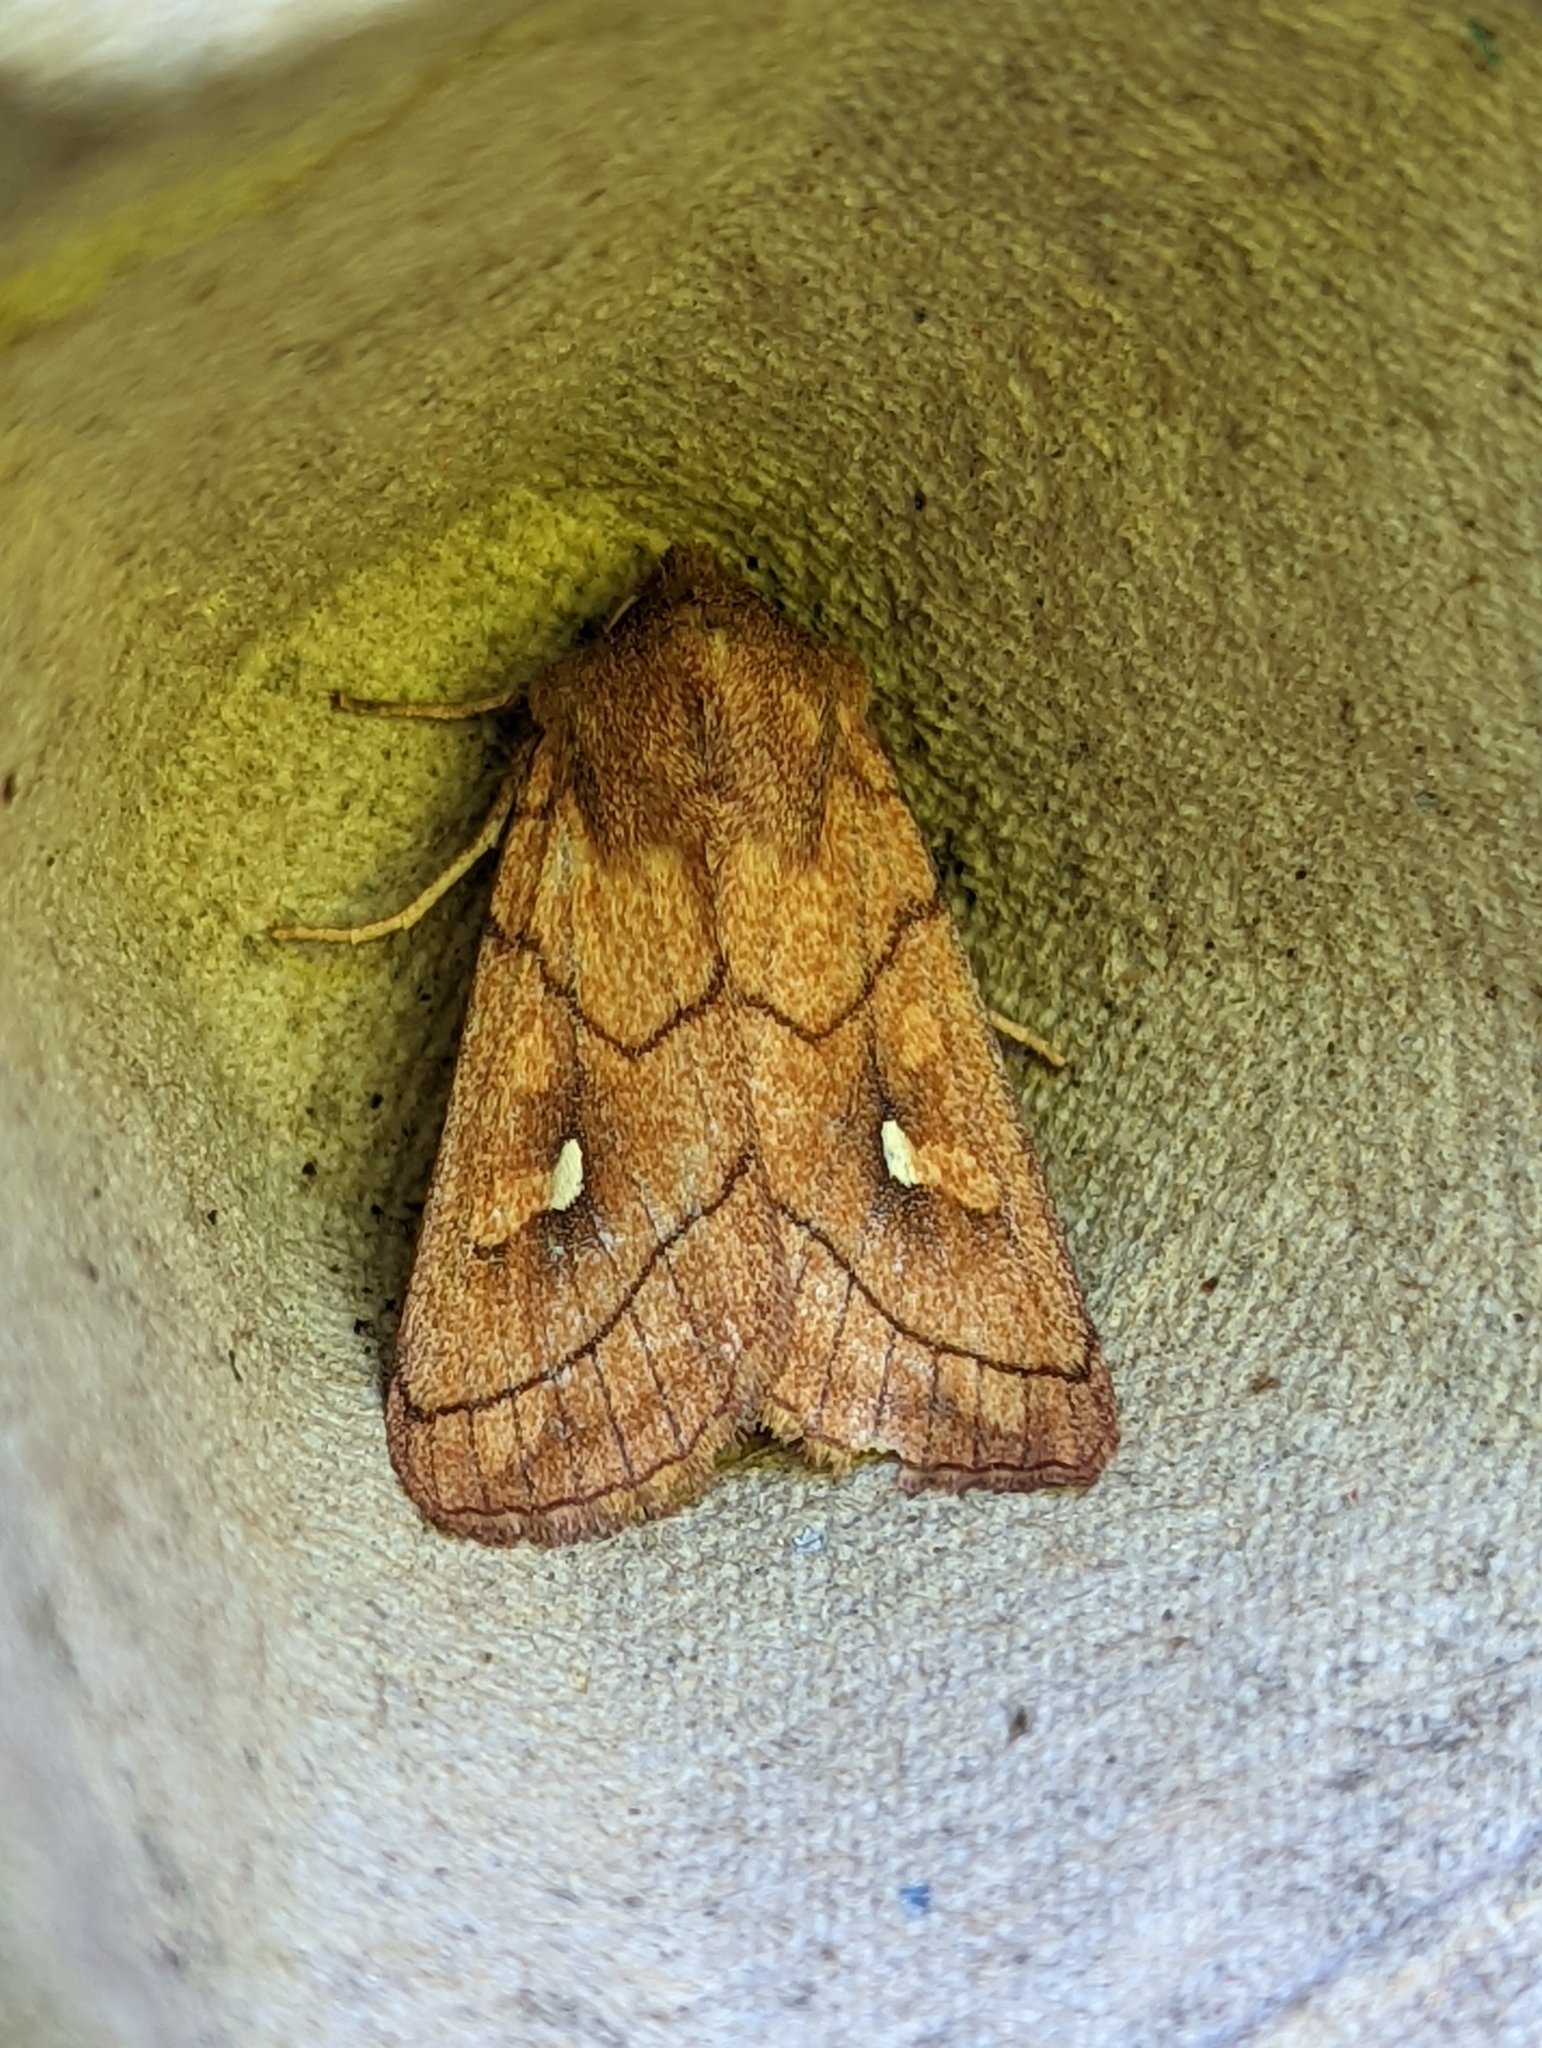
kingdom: Animalia
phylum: Arthropoda
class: Insecta
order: Lepidoptera
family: Noctuidae
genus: Mythimna
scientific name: Mythimna conigera
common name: Brown-line bright-eye
